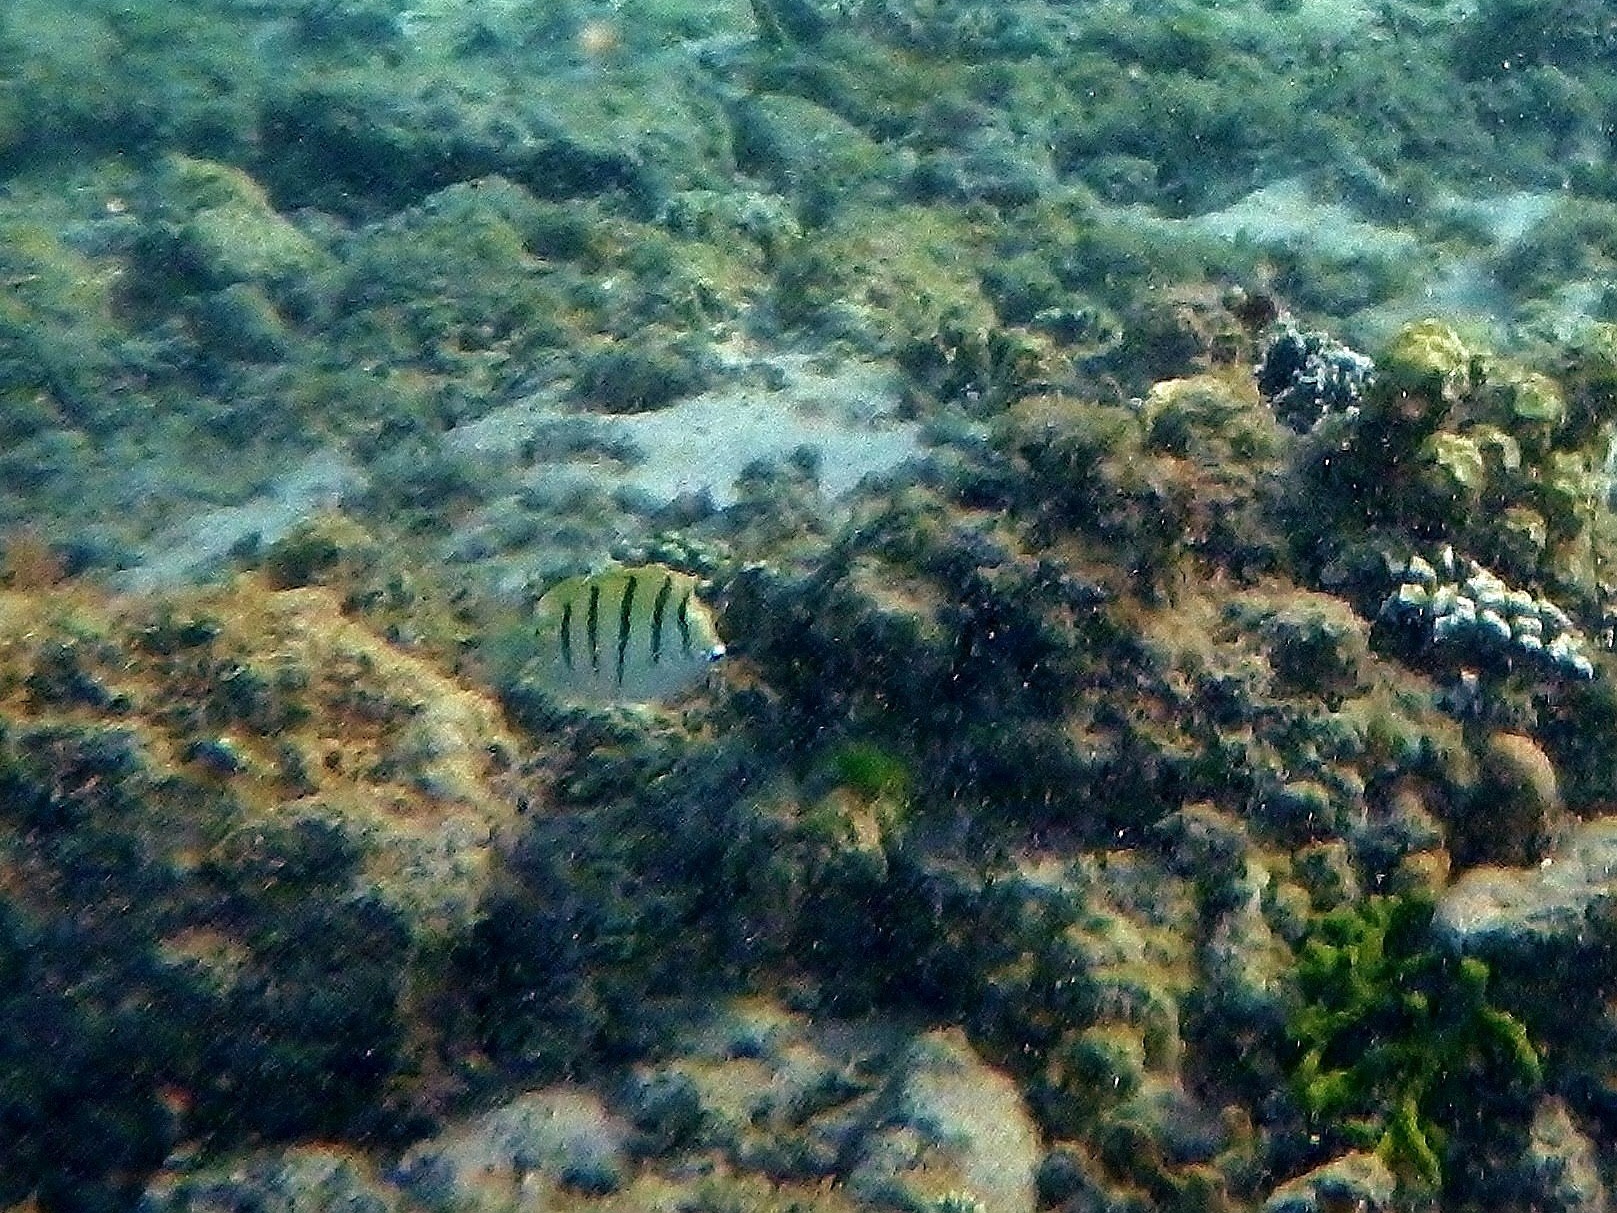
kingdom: Animalia
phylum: Chordata
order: Perciformes
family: Acanthuridae
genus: Acanthurus
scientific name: Acanthurus triostegus
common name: Convict surgeonfish
